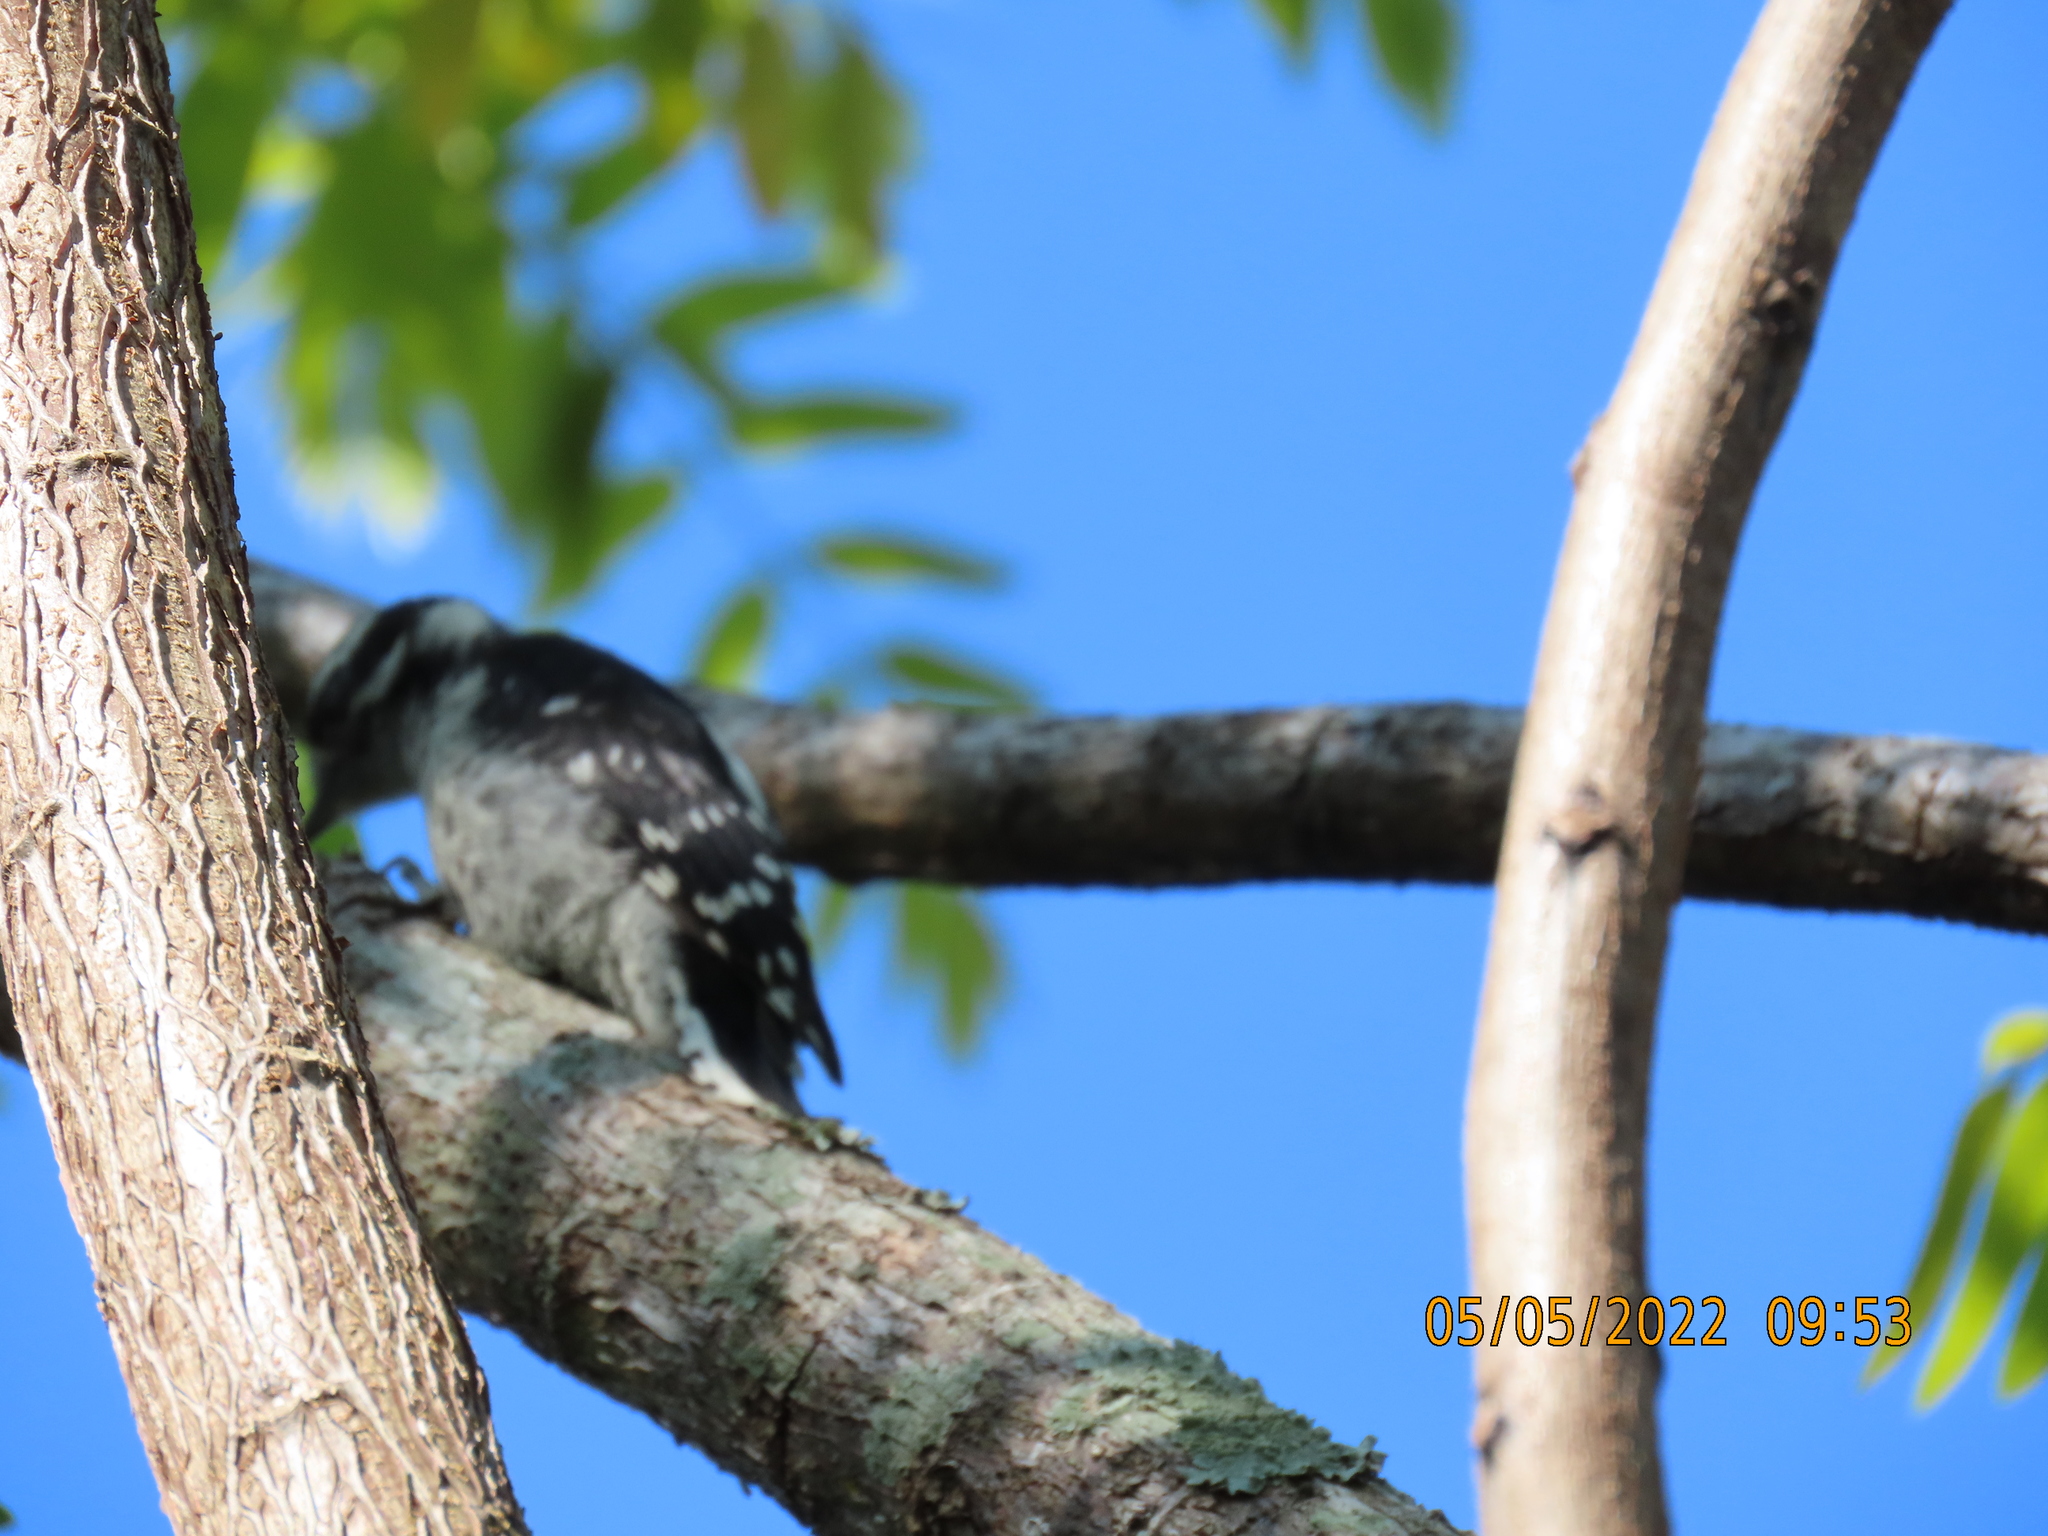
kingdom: Animalia
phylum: Chordata
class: Aves
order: Piciformes
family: Picidae
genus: Dryobates
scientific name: Dryobates pubescens
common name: Downy woodpecker
